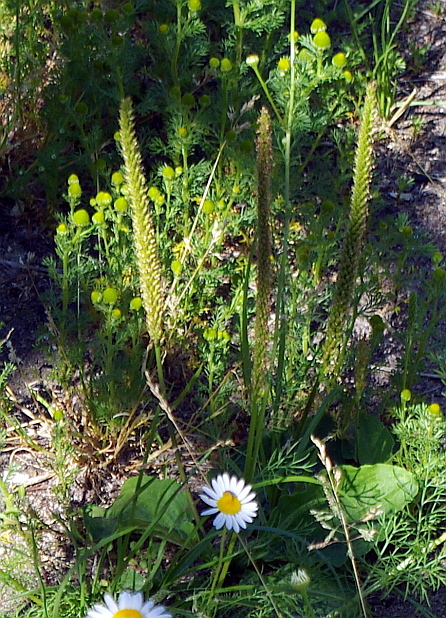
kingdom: Plantae
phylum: Tracheophyta
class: Magnoliopsida
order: Lamiales
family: Plantaginaceae
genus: Plantago
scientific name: Plantago major
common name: Common plantain
